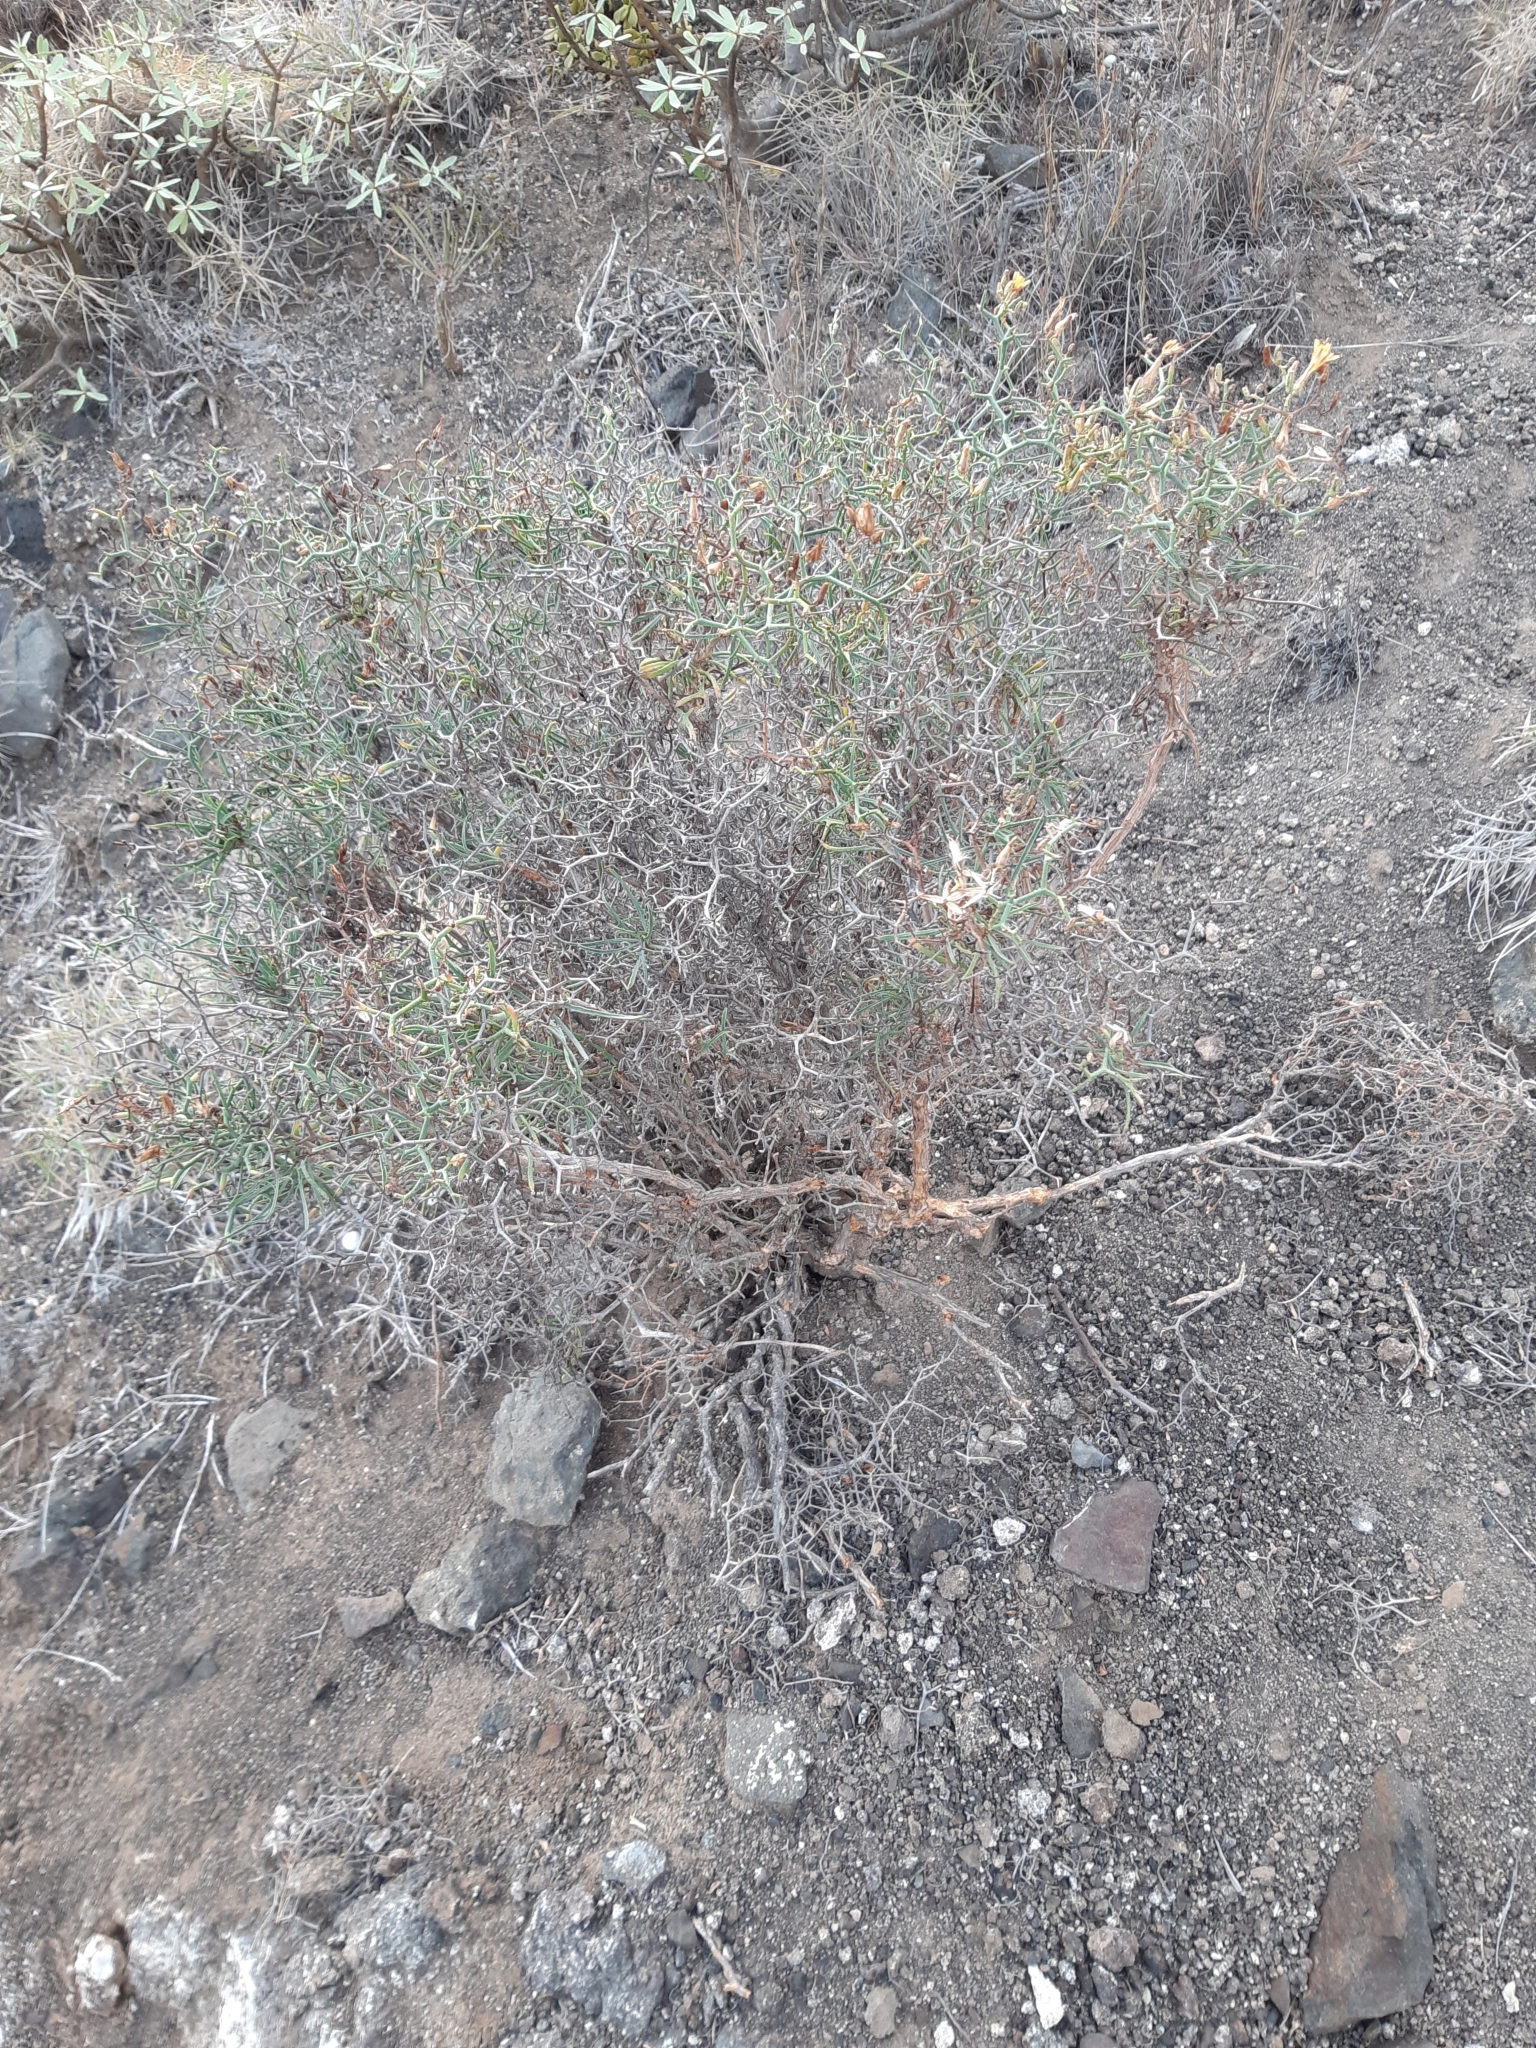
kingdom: Plantae
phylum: Tracheophyta
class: Magnoliopsida
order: Asterales
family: Asteraceae
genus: Launaea
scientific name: Launaea arborescens
